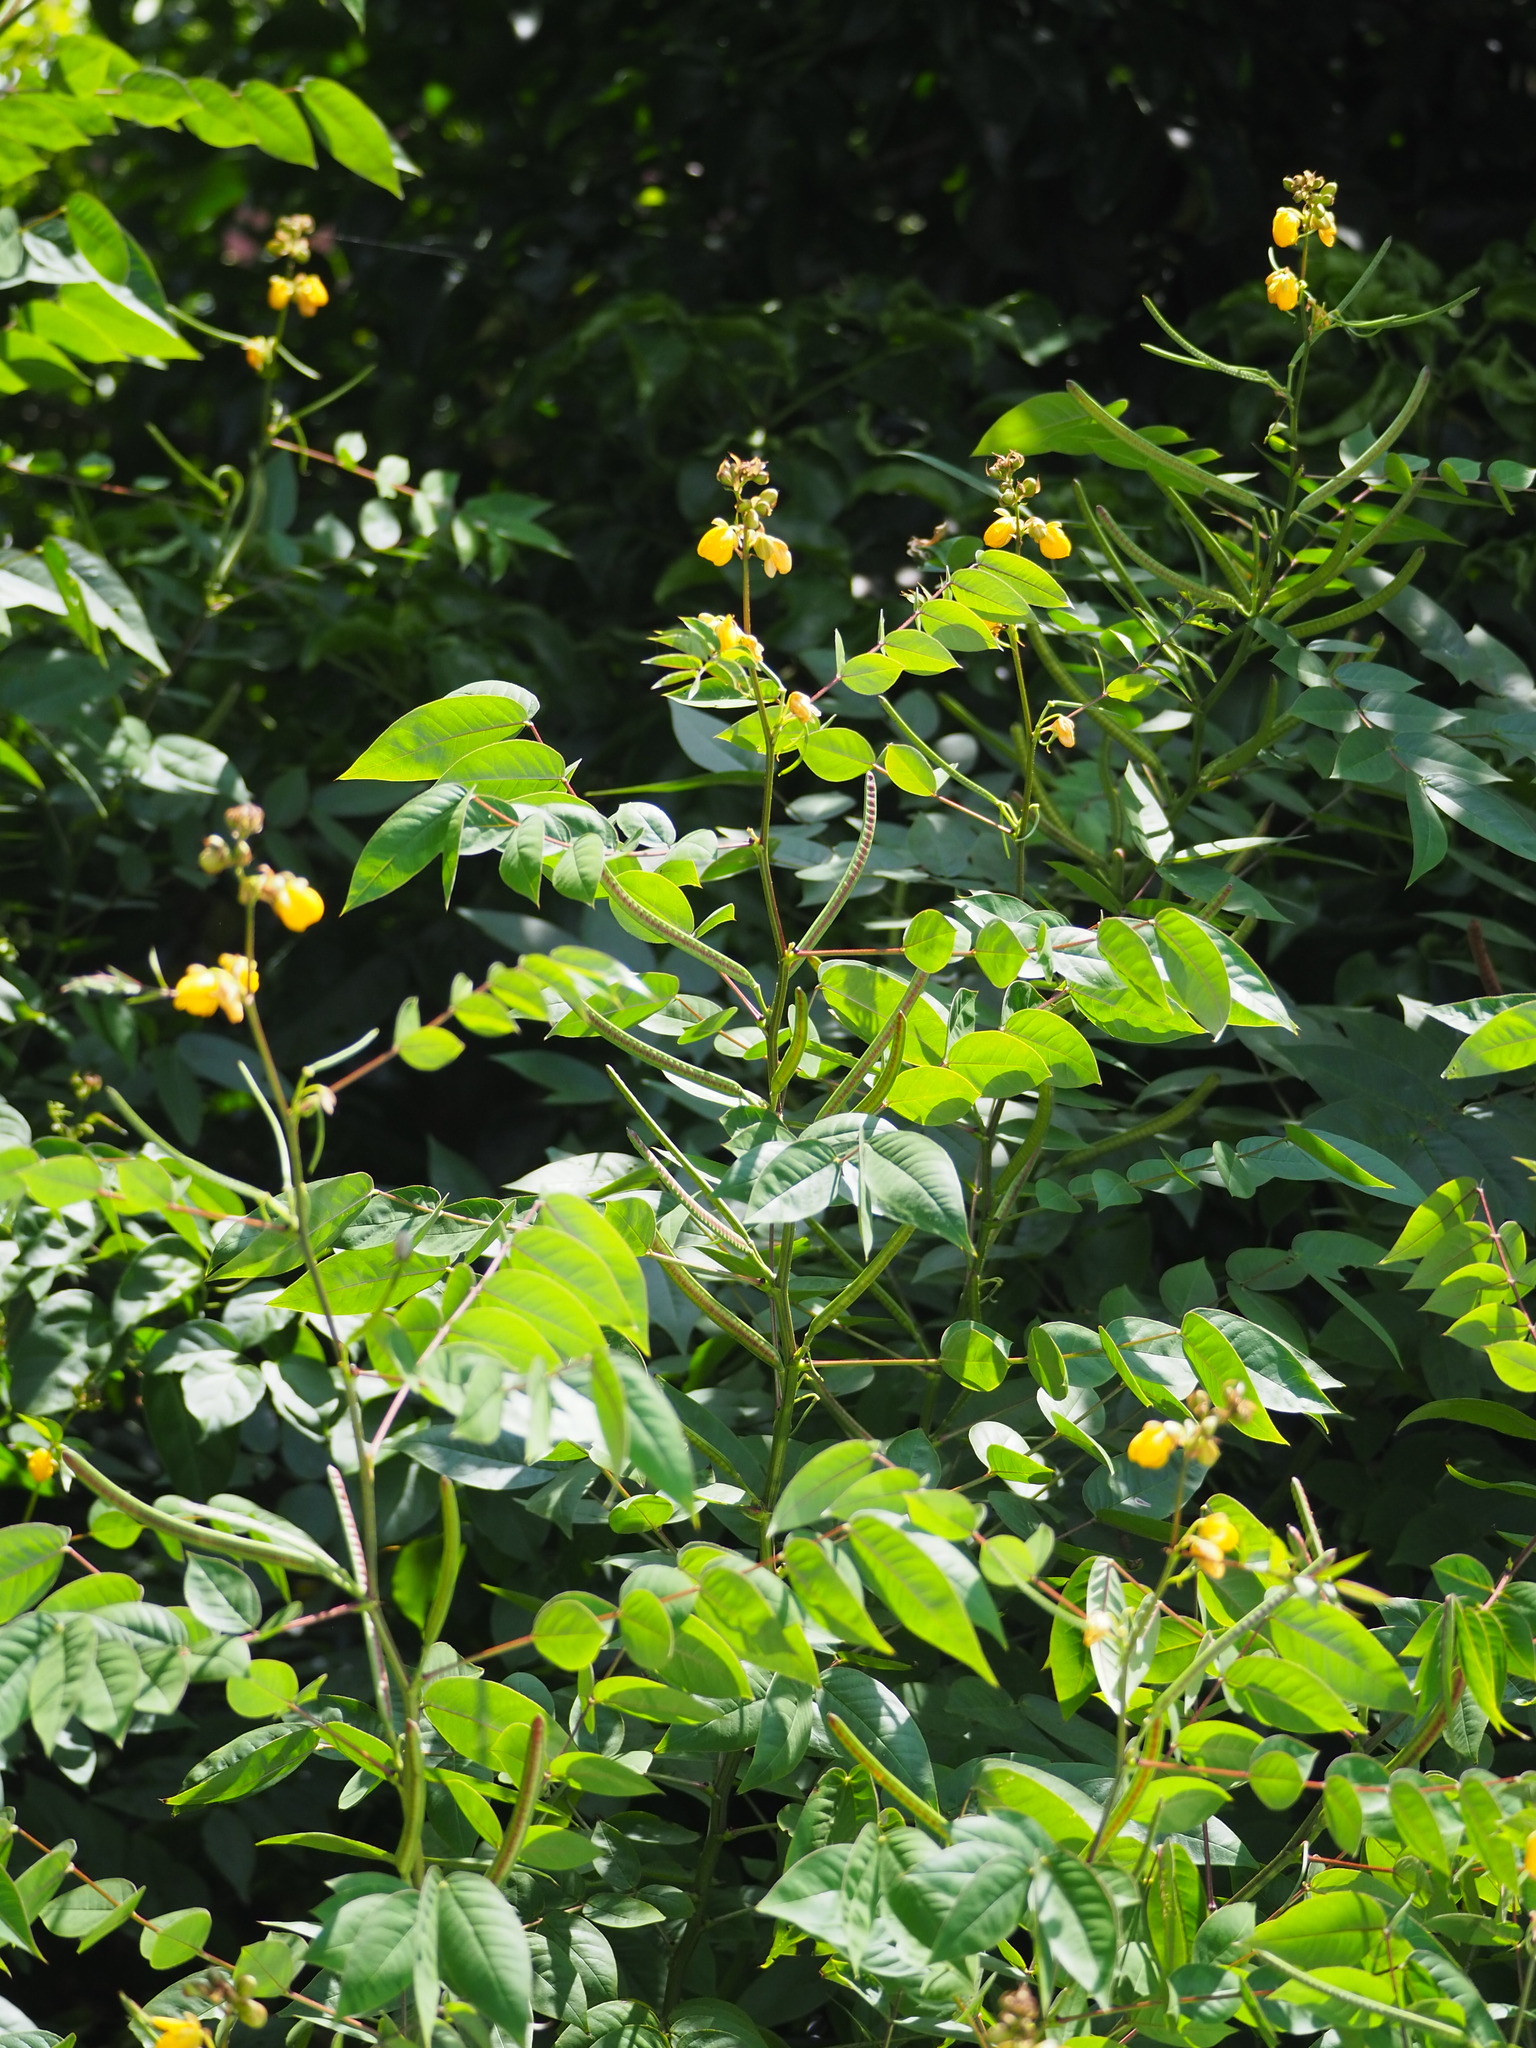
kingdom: Plantae
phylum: Tracheophyta
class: Magnoliopsida
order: Fabales
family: Fabaceae
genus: Senna
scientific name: Senna occidentalis
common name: Septicweed
